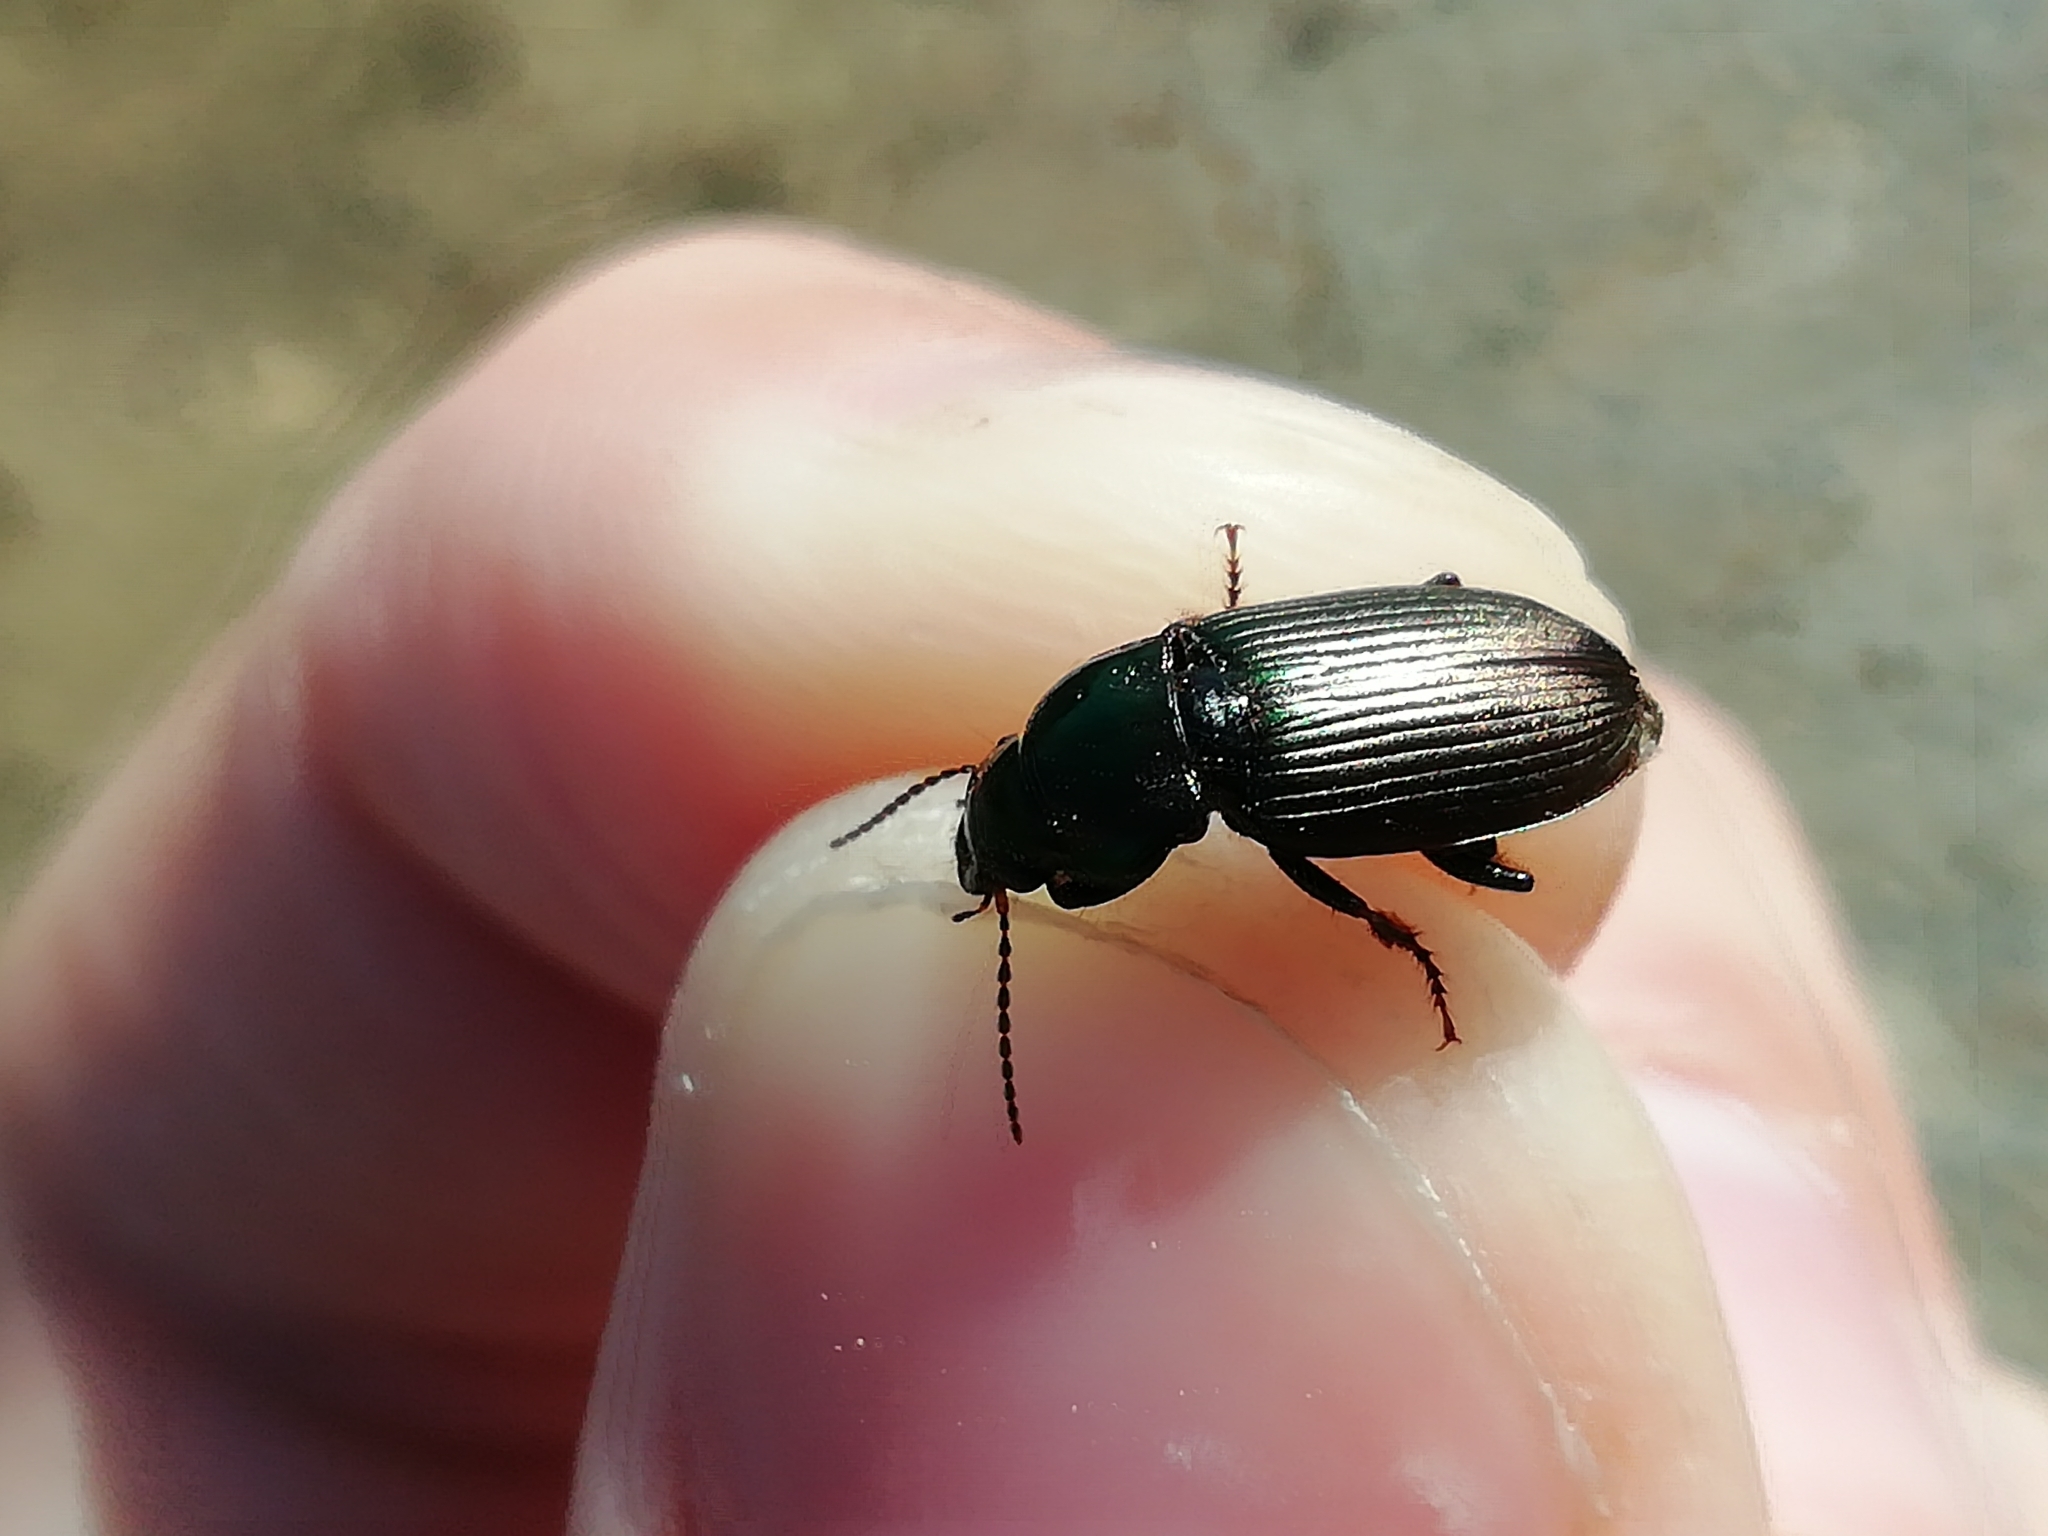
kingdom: Animalia
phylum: Arthropoda
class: Insecta
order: Coleoptera
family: Carabidae
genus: Harpalus
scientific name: Harpalus distinguendus
